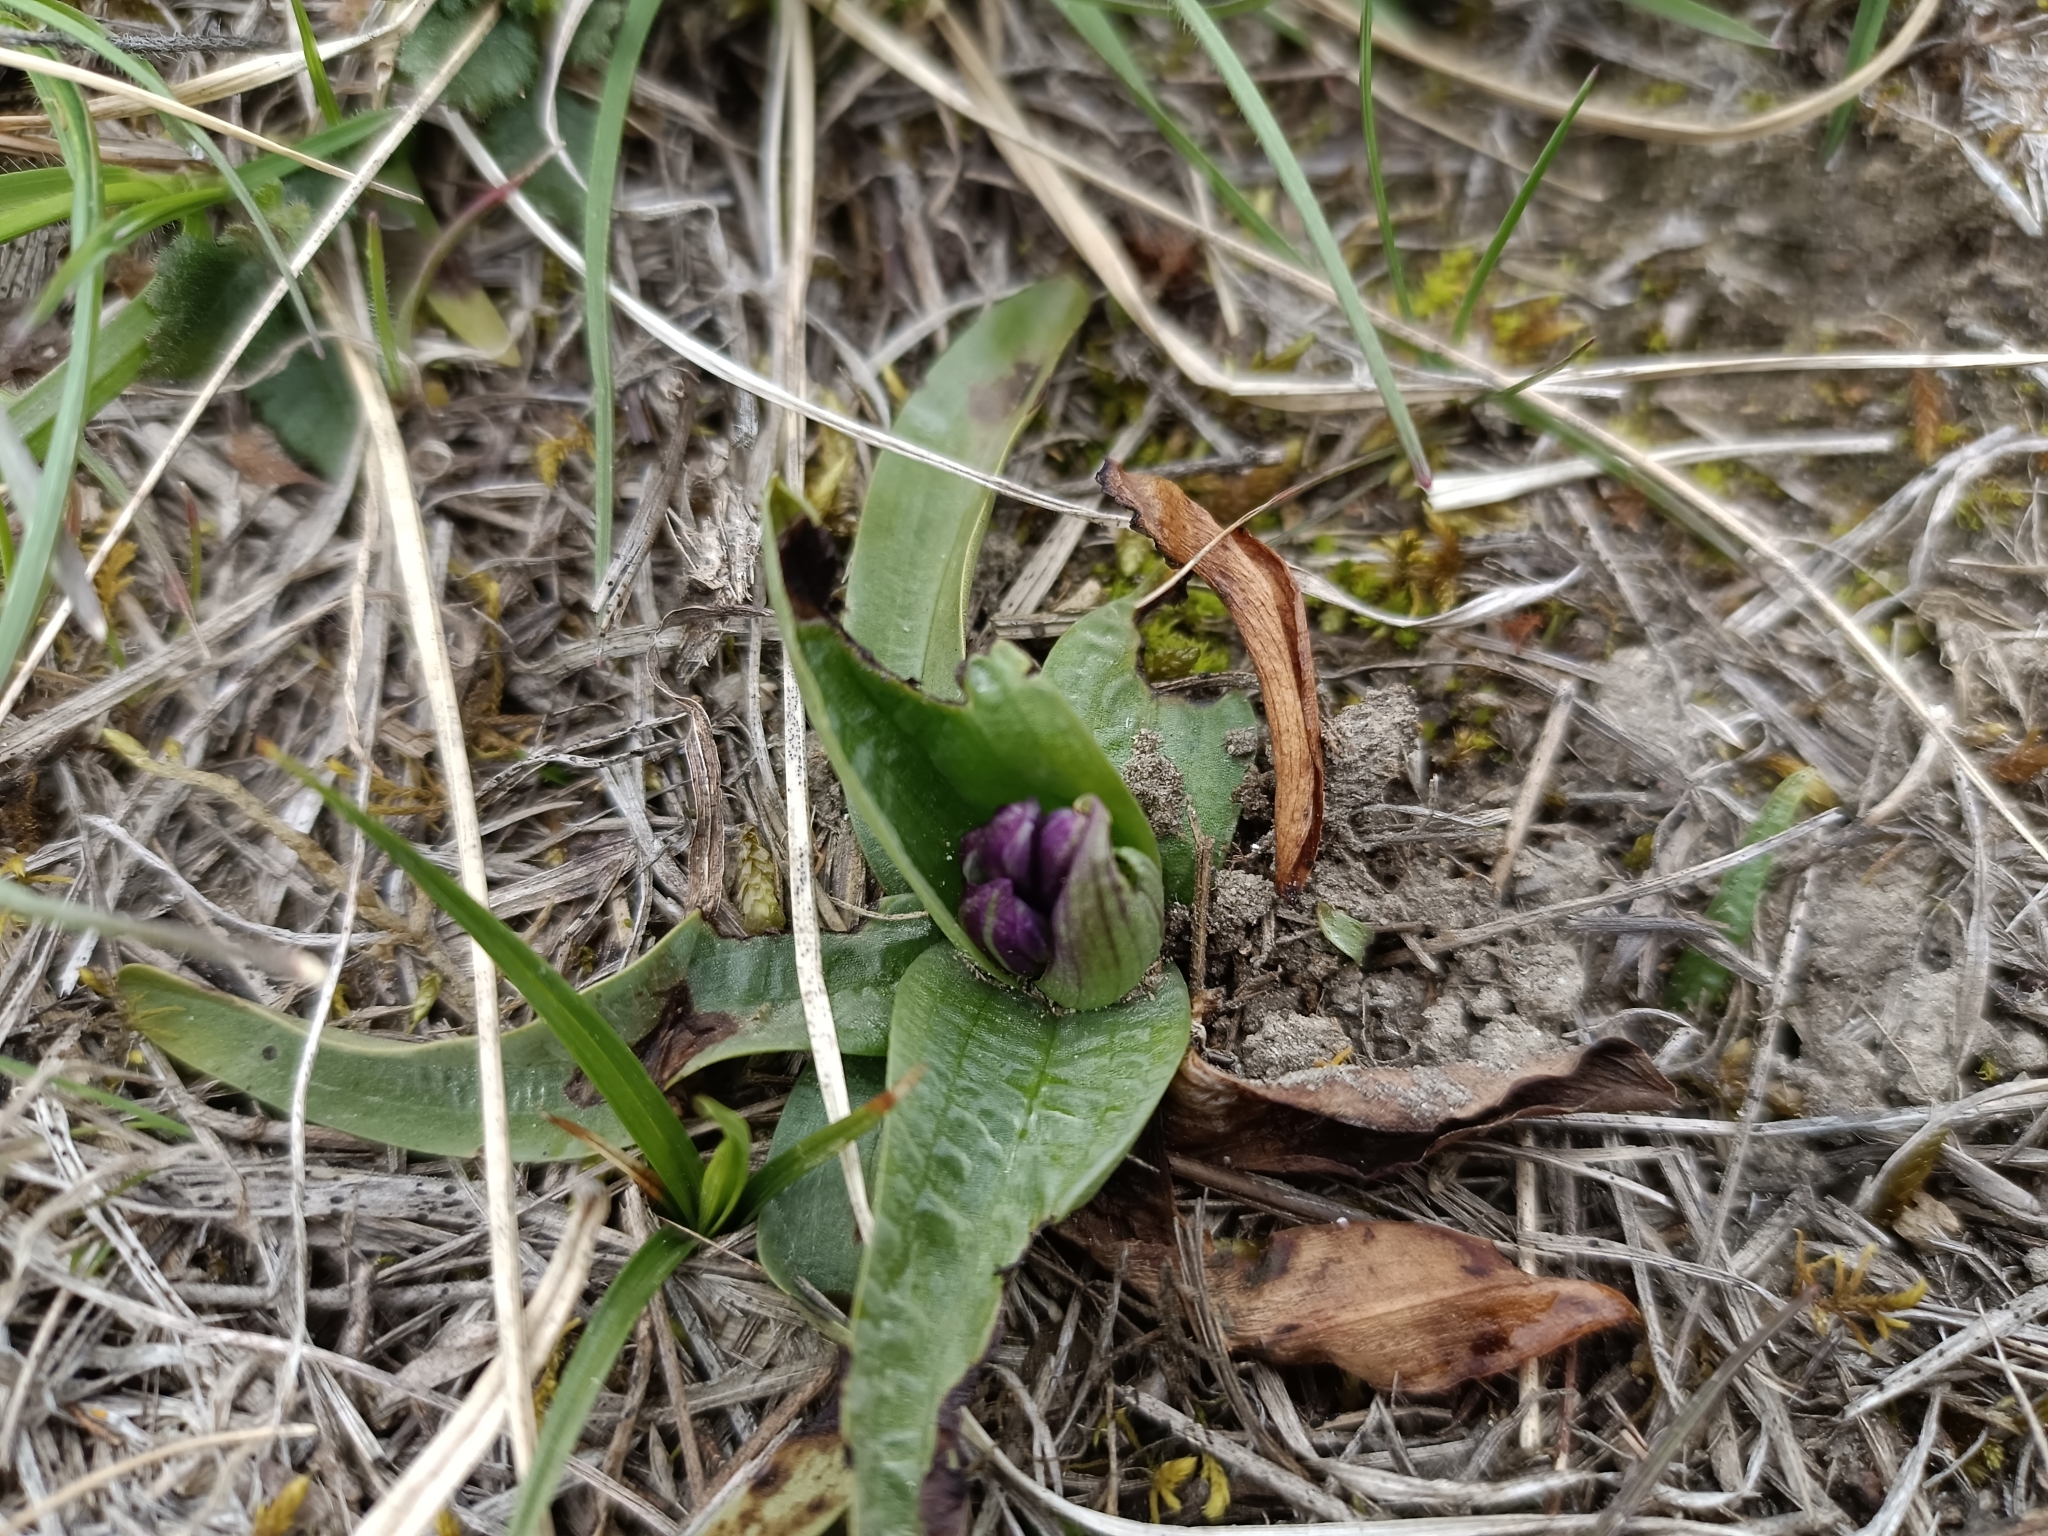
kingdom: Plantae
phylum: Tracheophyta
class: Liliopsida
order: Asparagales
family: Orchidaceae
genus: Anacamptis
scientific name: Anacamptis morio
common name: Green-winged orchid
